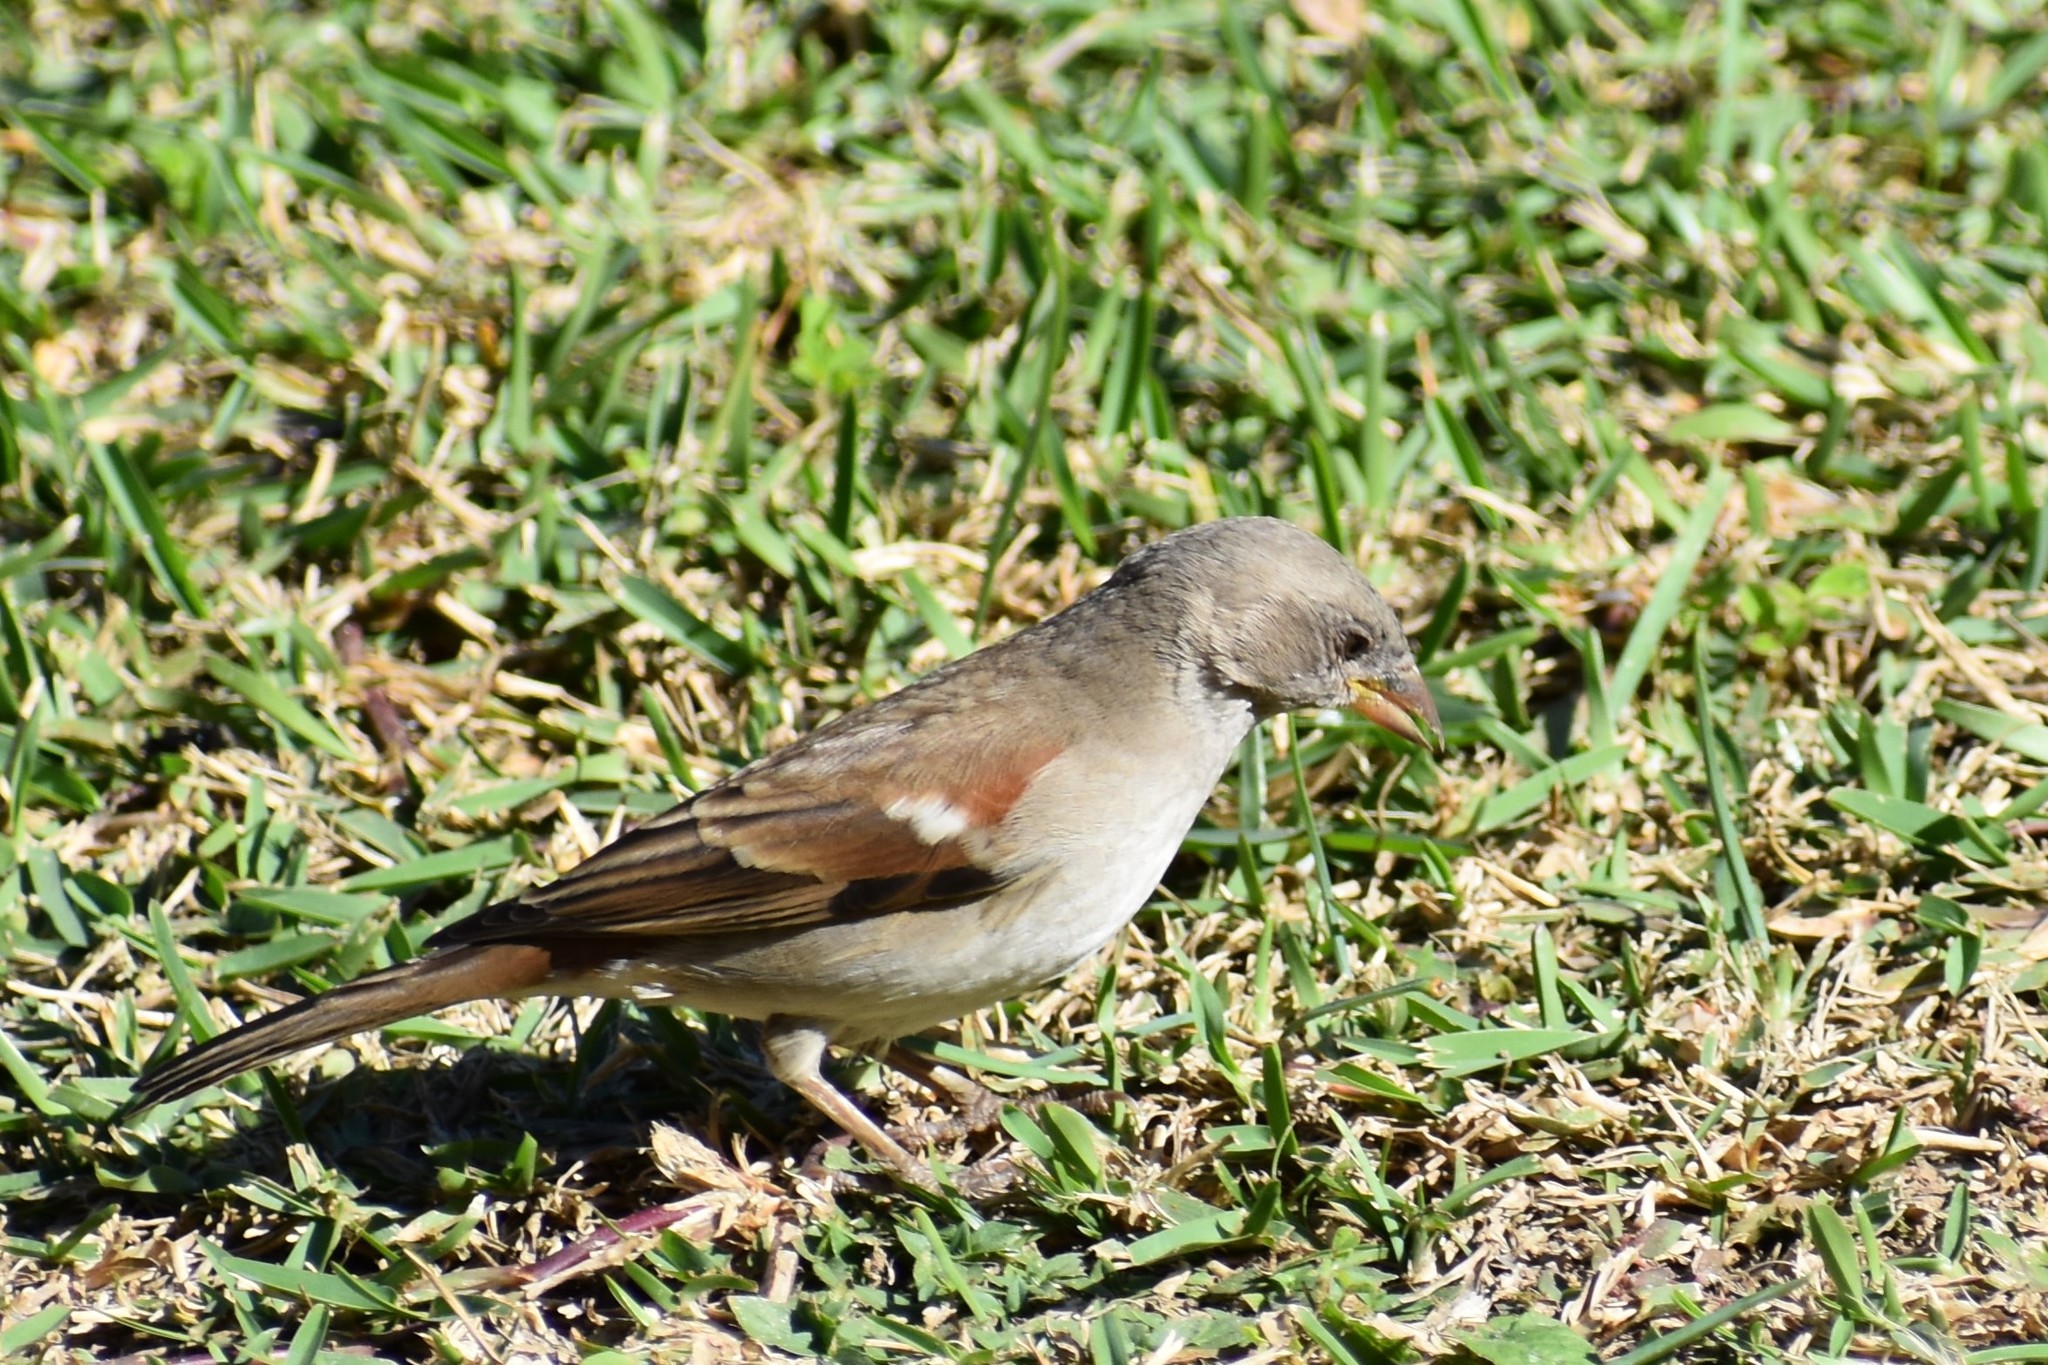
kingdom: Animalia
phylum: Chordata
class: Aves
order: Passeriformes
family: Passeridae
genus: Passer
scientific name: Passer diffusus
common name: Southern grey-headed sparrow
